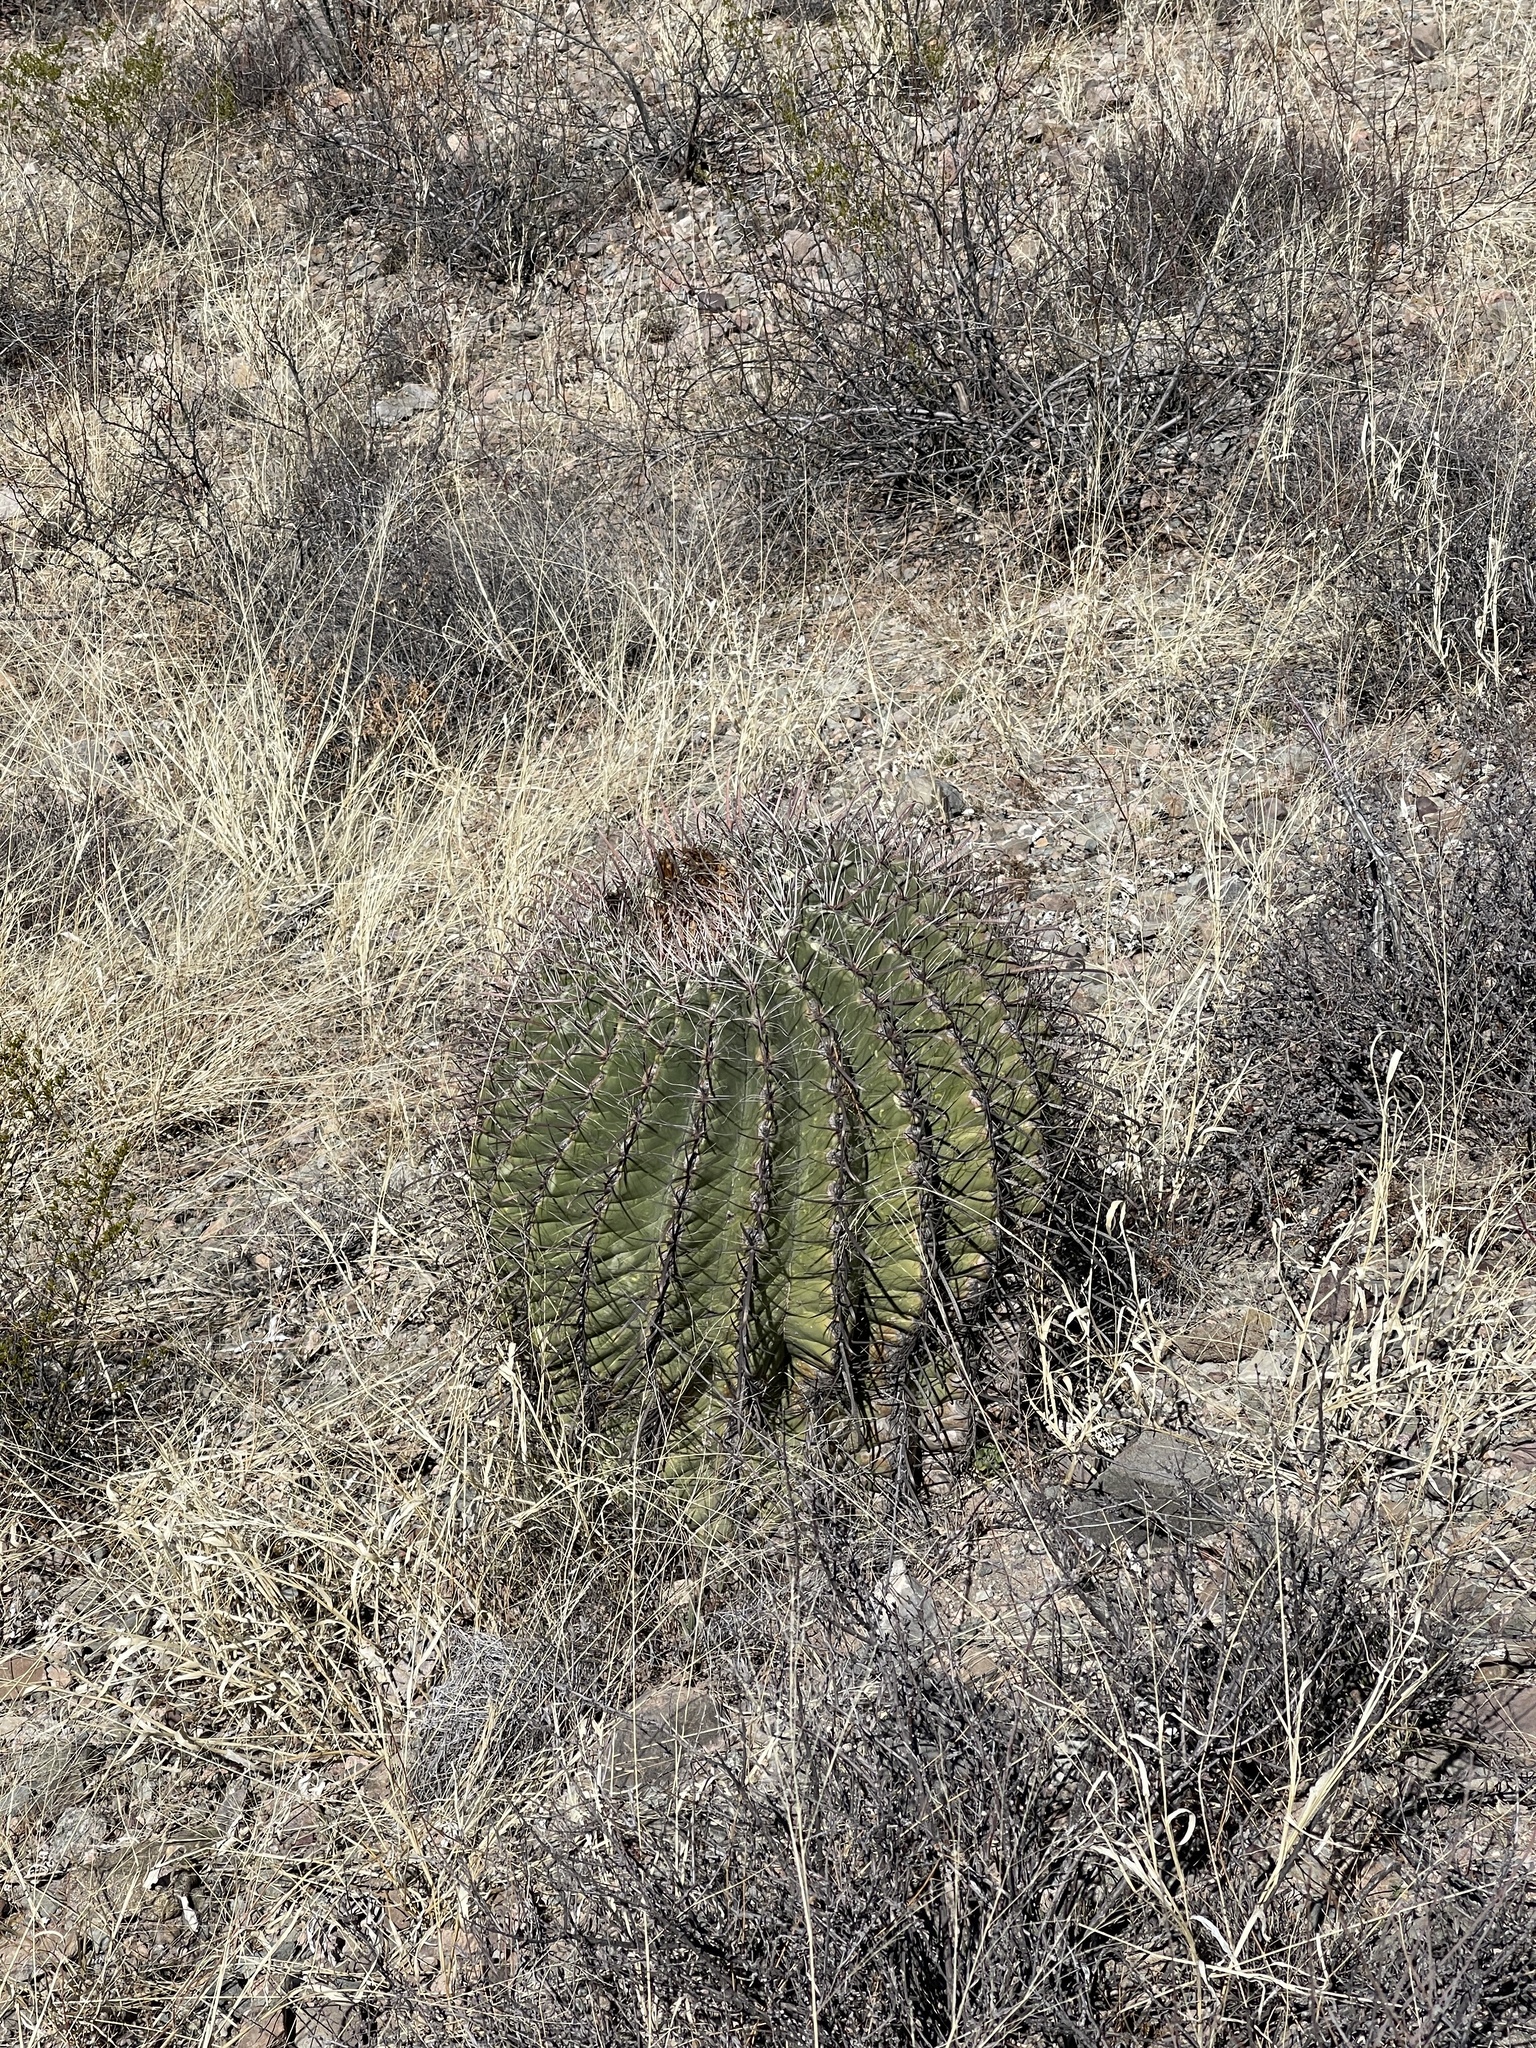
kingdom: Plantae
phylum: Tracheophyta
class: Magnoliopsida
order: Caryophyllales
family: Cactaceae
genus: Ferocactus
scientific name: Ferocactus wislizeni
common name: Candy barrel cactus
